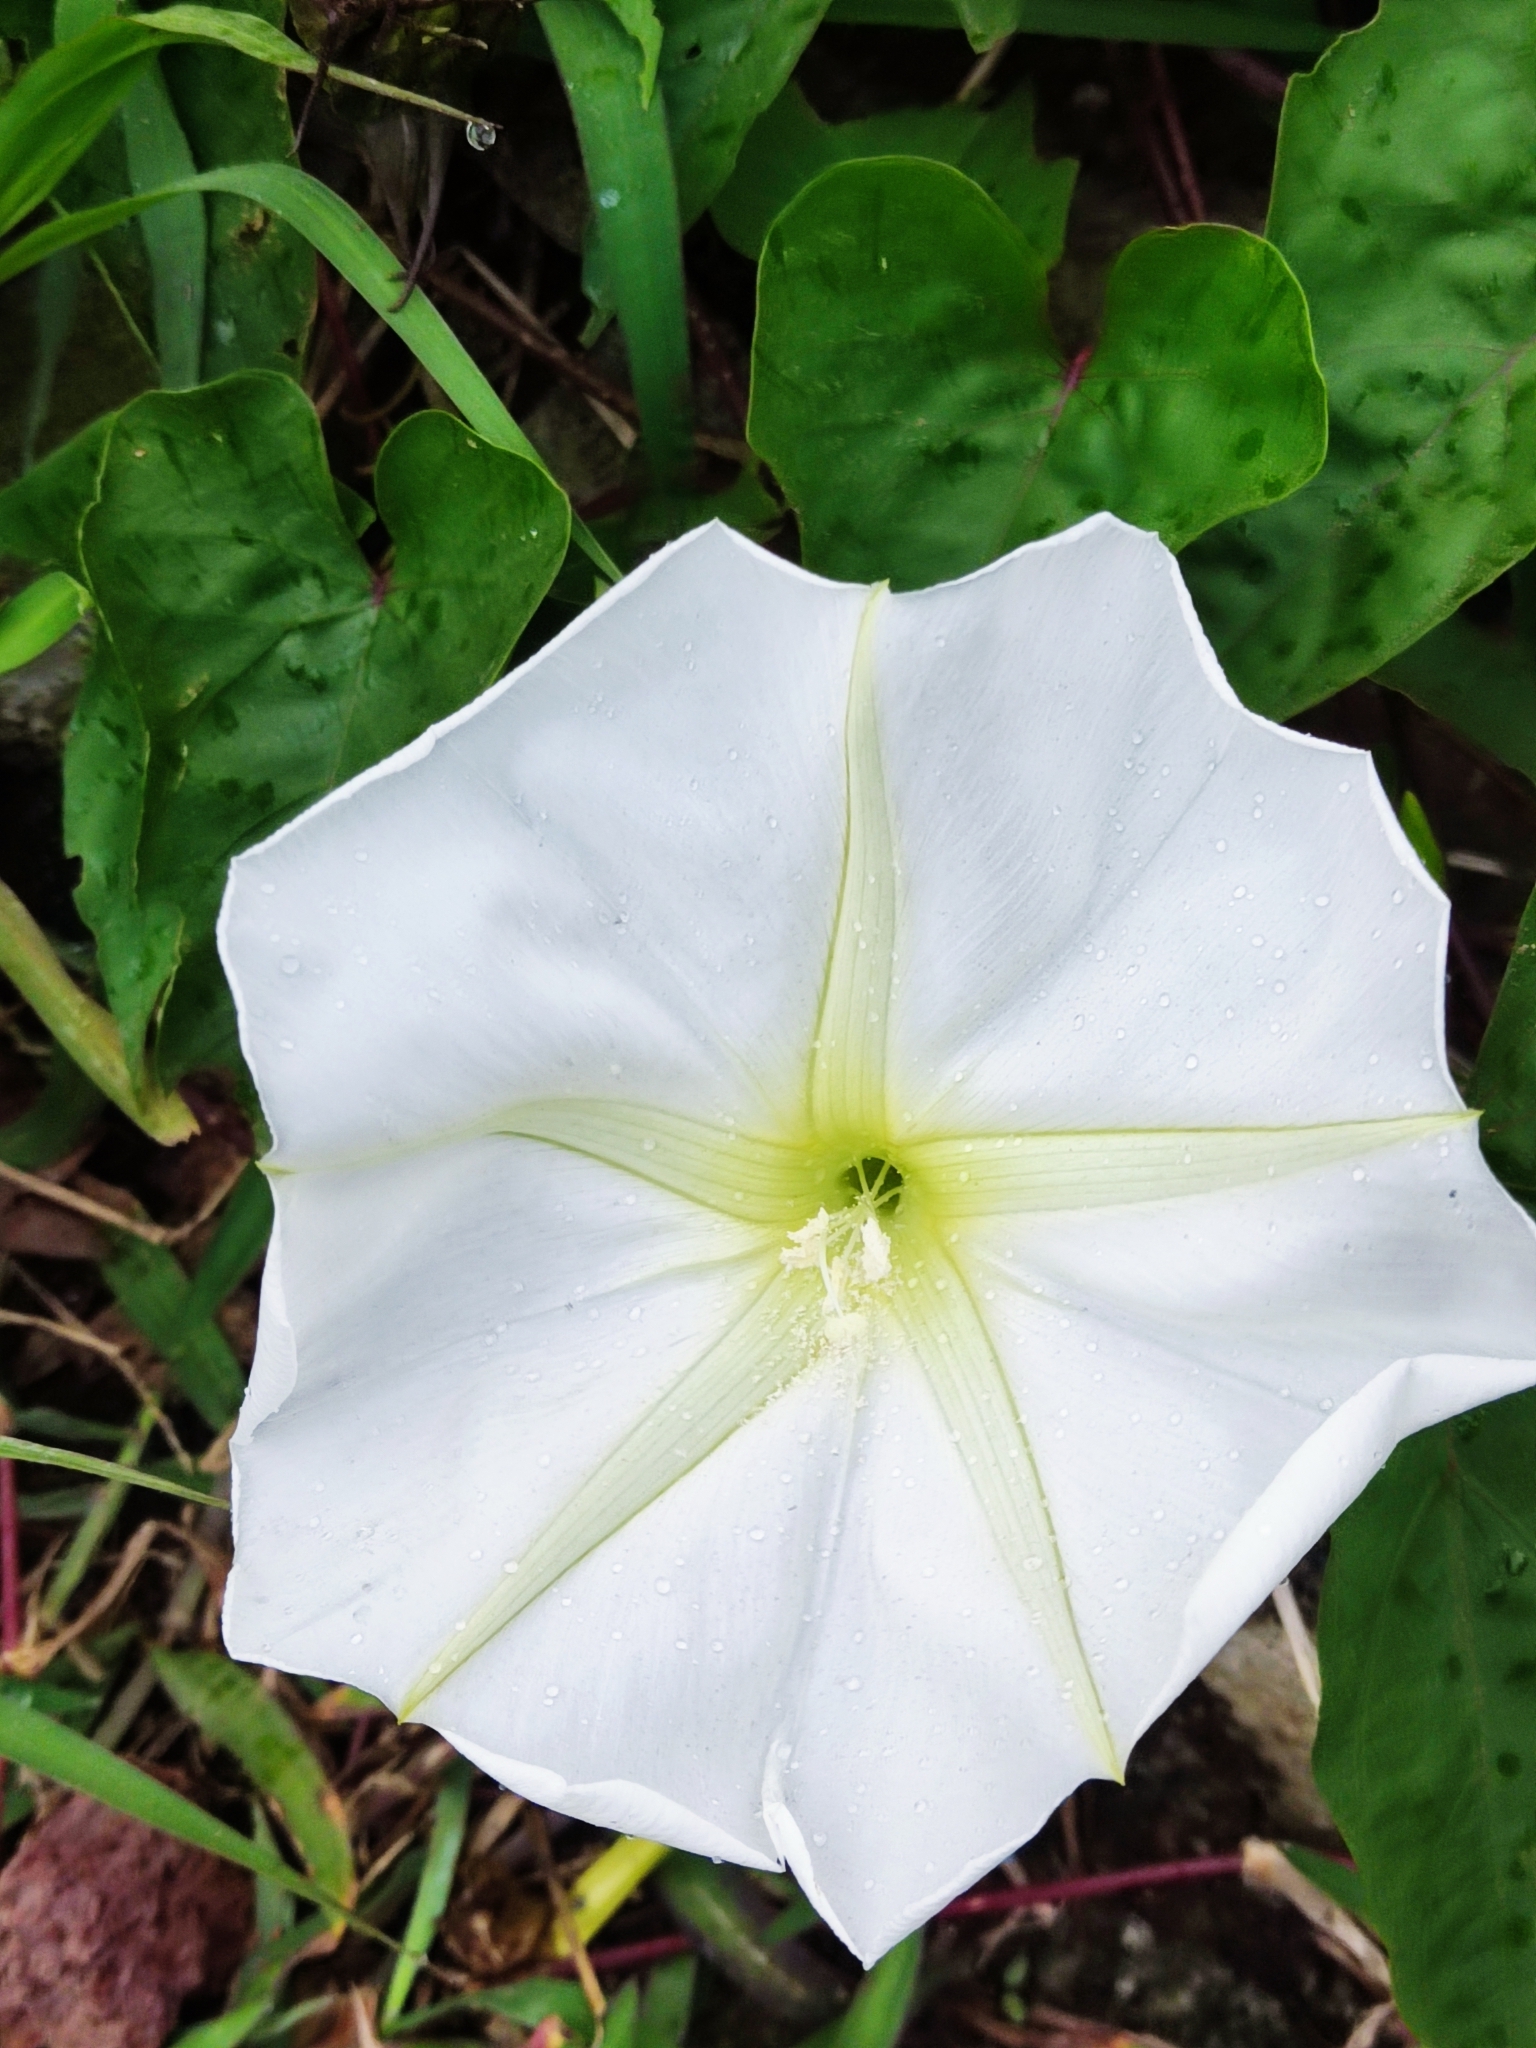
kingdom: Plantae
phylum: Tracheophyta
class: Magnoliopsida
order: Solanales
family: Convolvulaceae
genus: Ipomoea
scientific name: Ipomoea alba
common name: Moonflower
